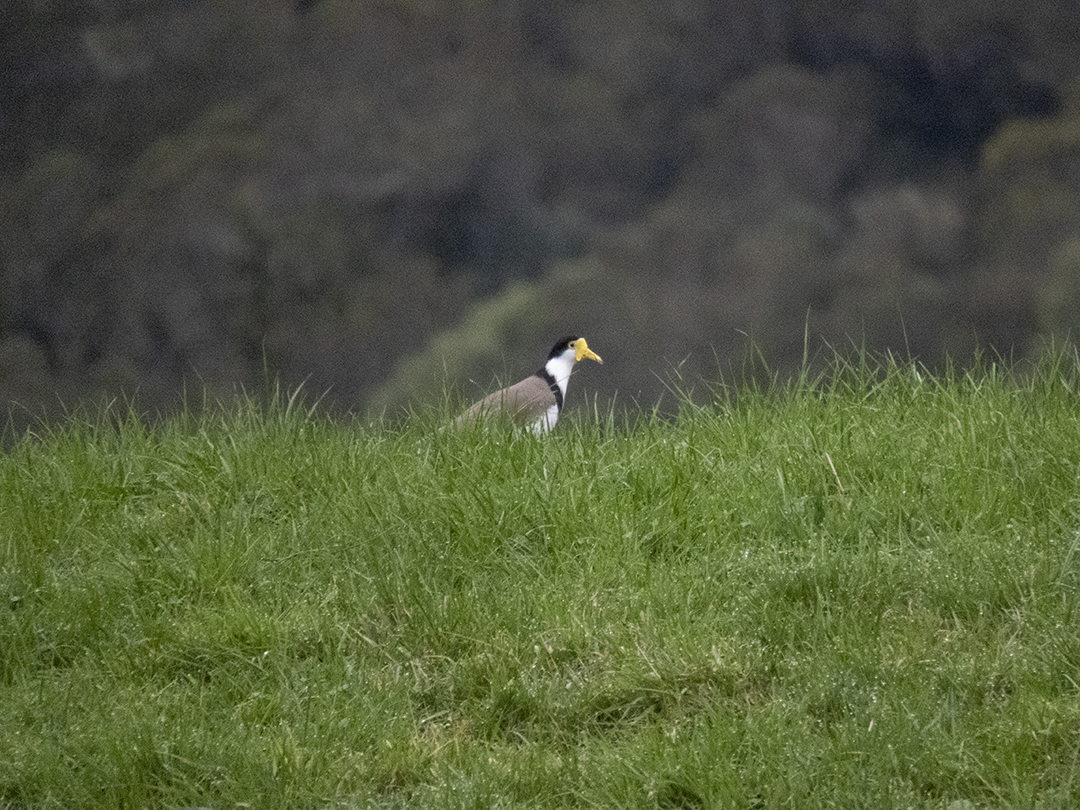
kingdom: Animalia
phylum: Chordata
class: Aves
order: Charadriiformes
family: Charadriidae
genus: Vanellus
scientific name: Vanellus miles
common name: Masked lapwing
